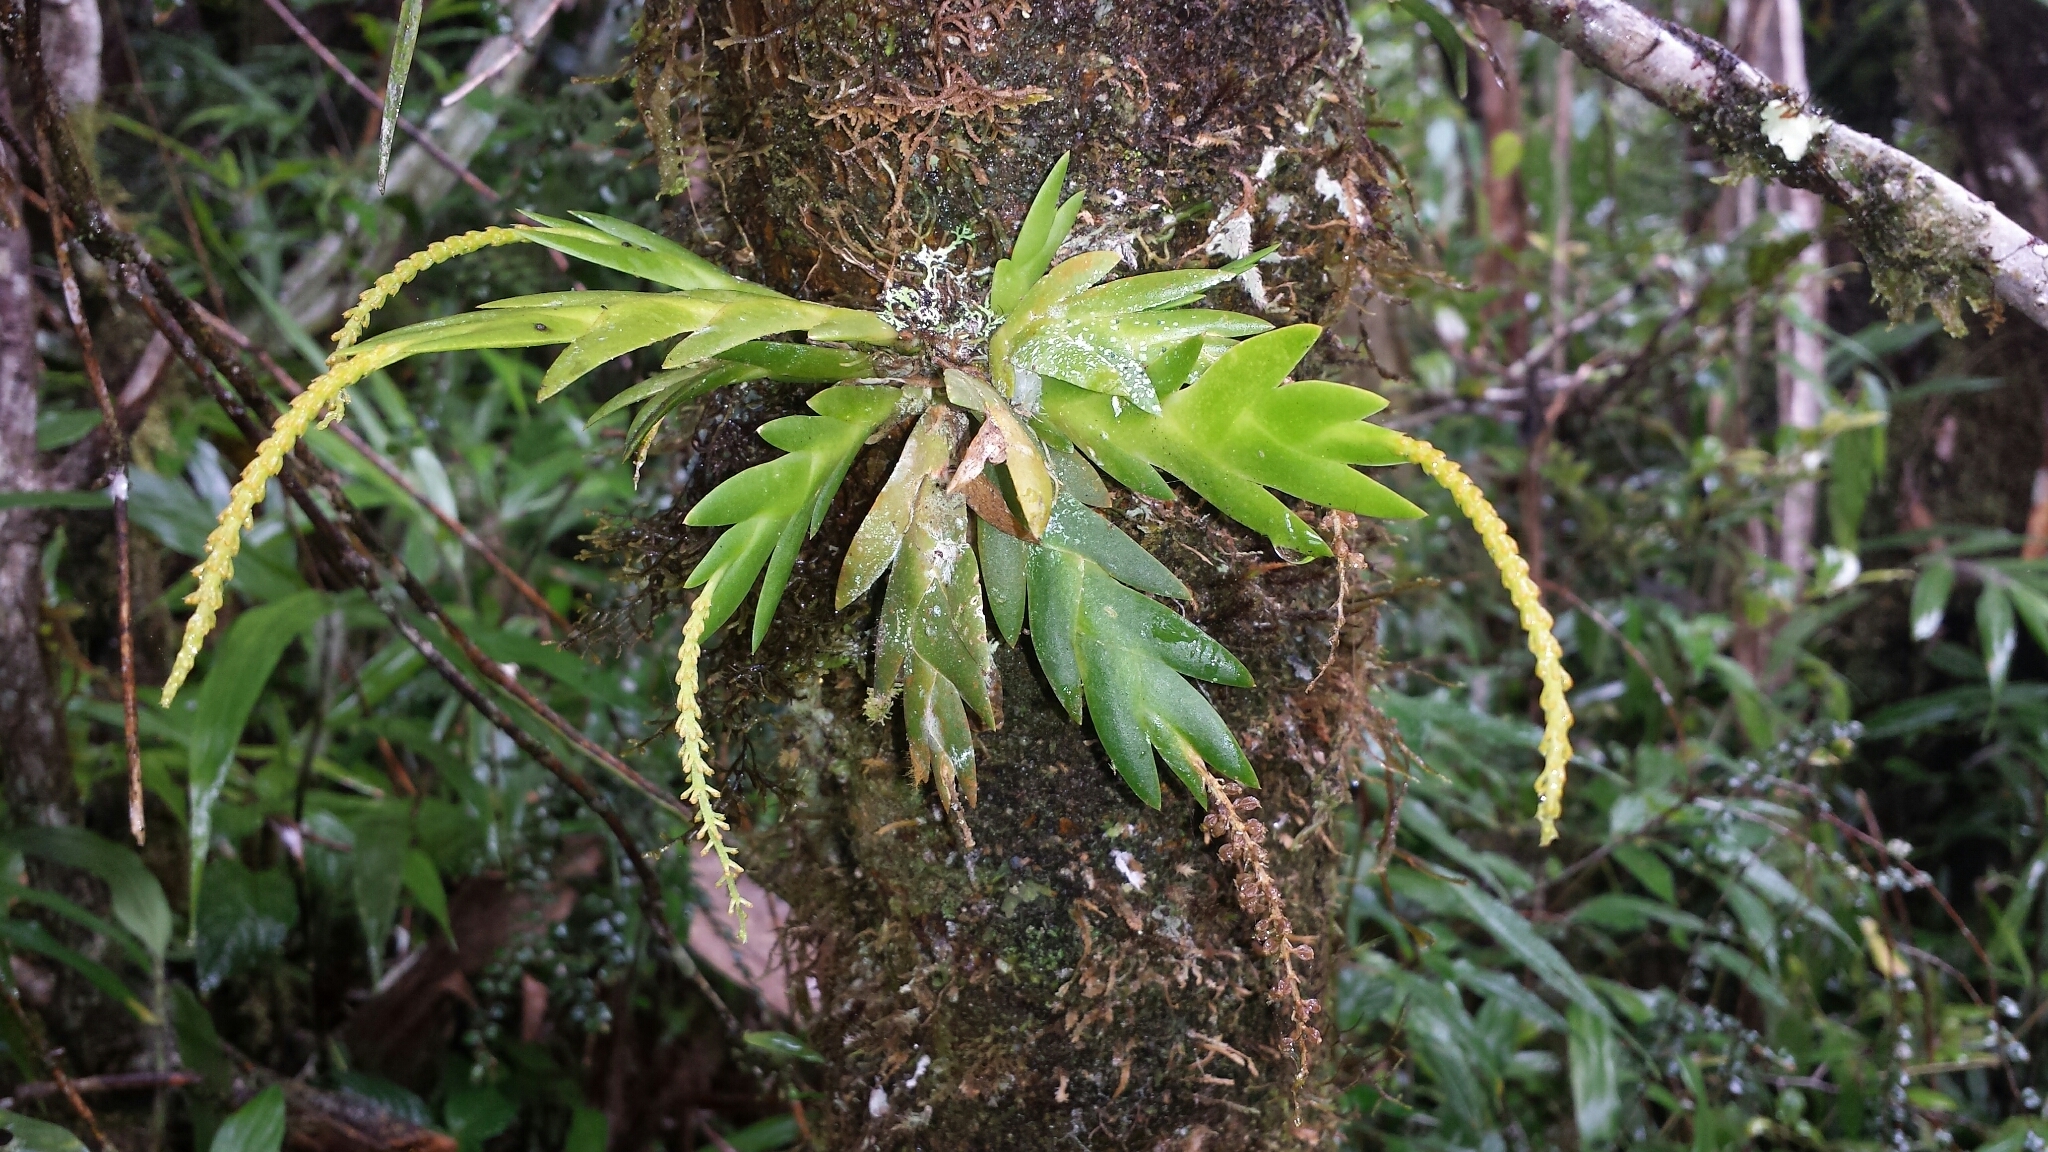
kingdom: Plantae
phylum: Tracheophyta
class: Liliopsida
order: Asparagales
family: Orchidaceae
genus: Oberonia
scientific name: Oberonia disticha
